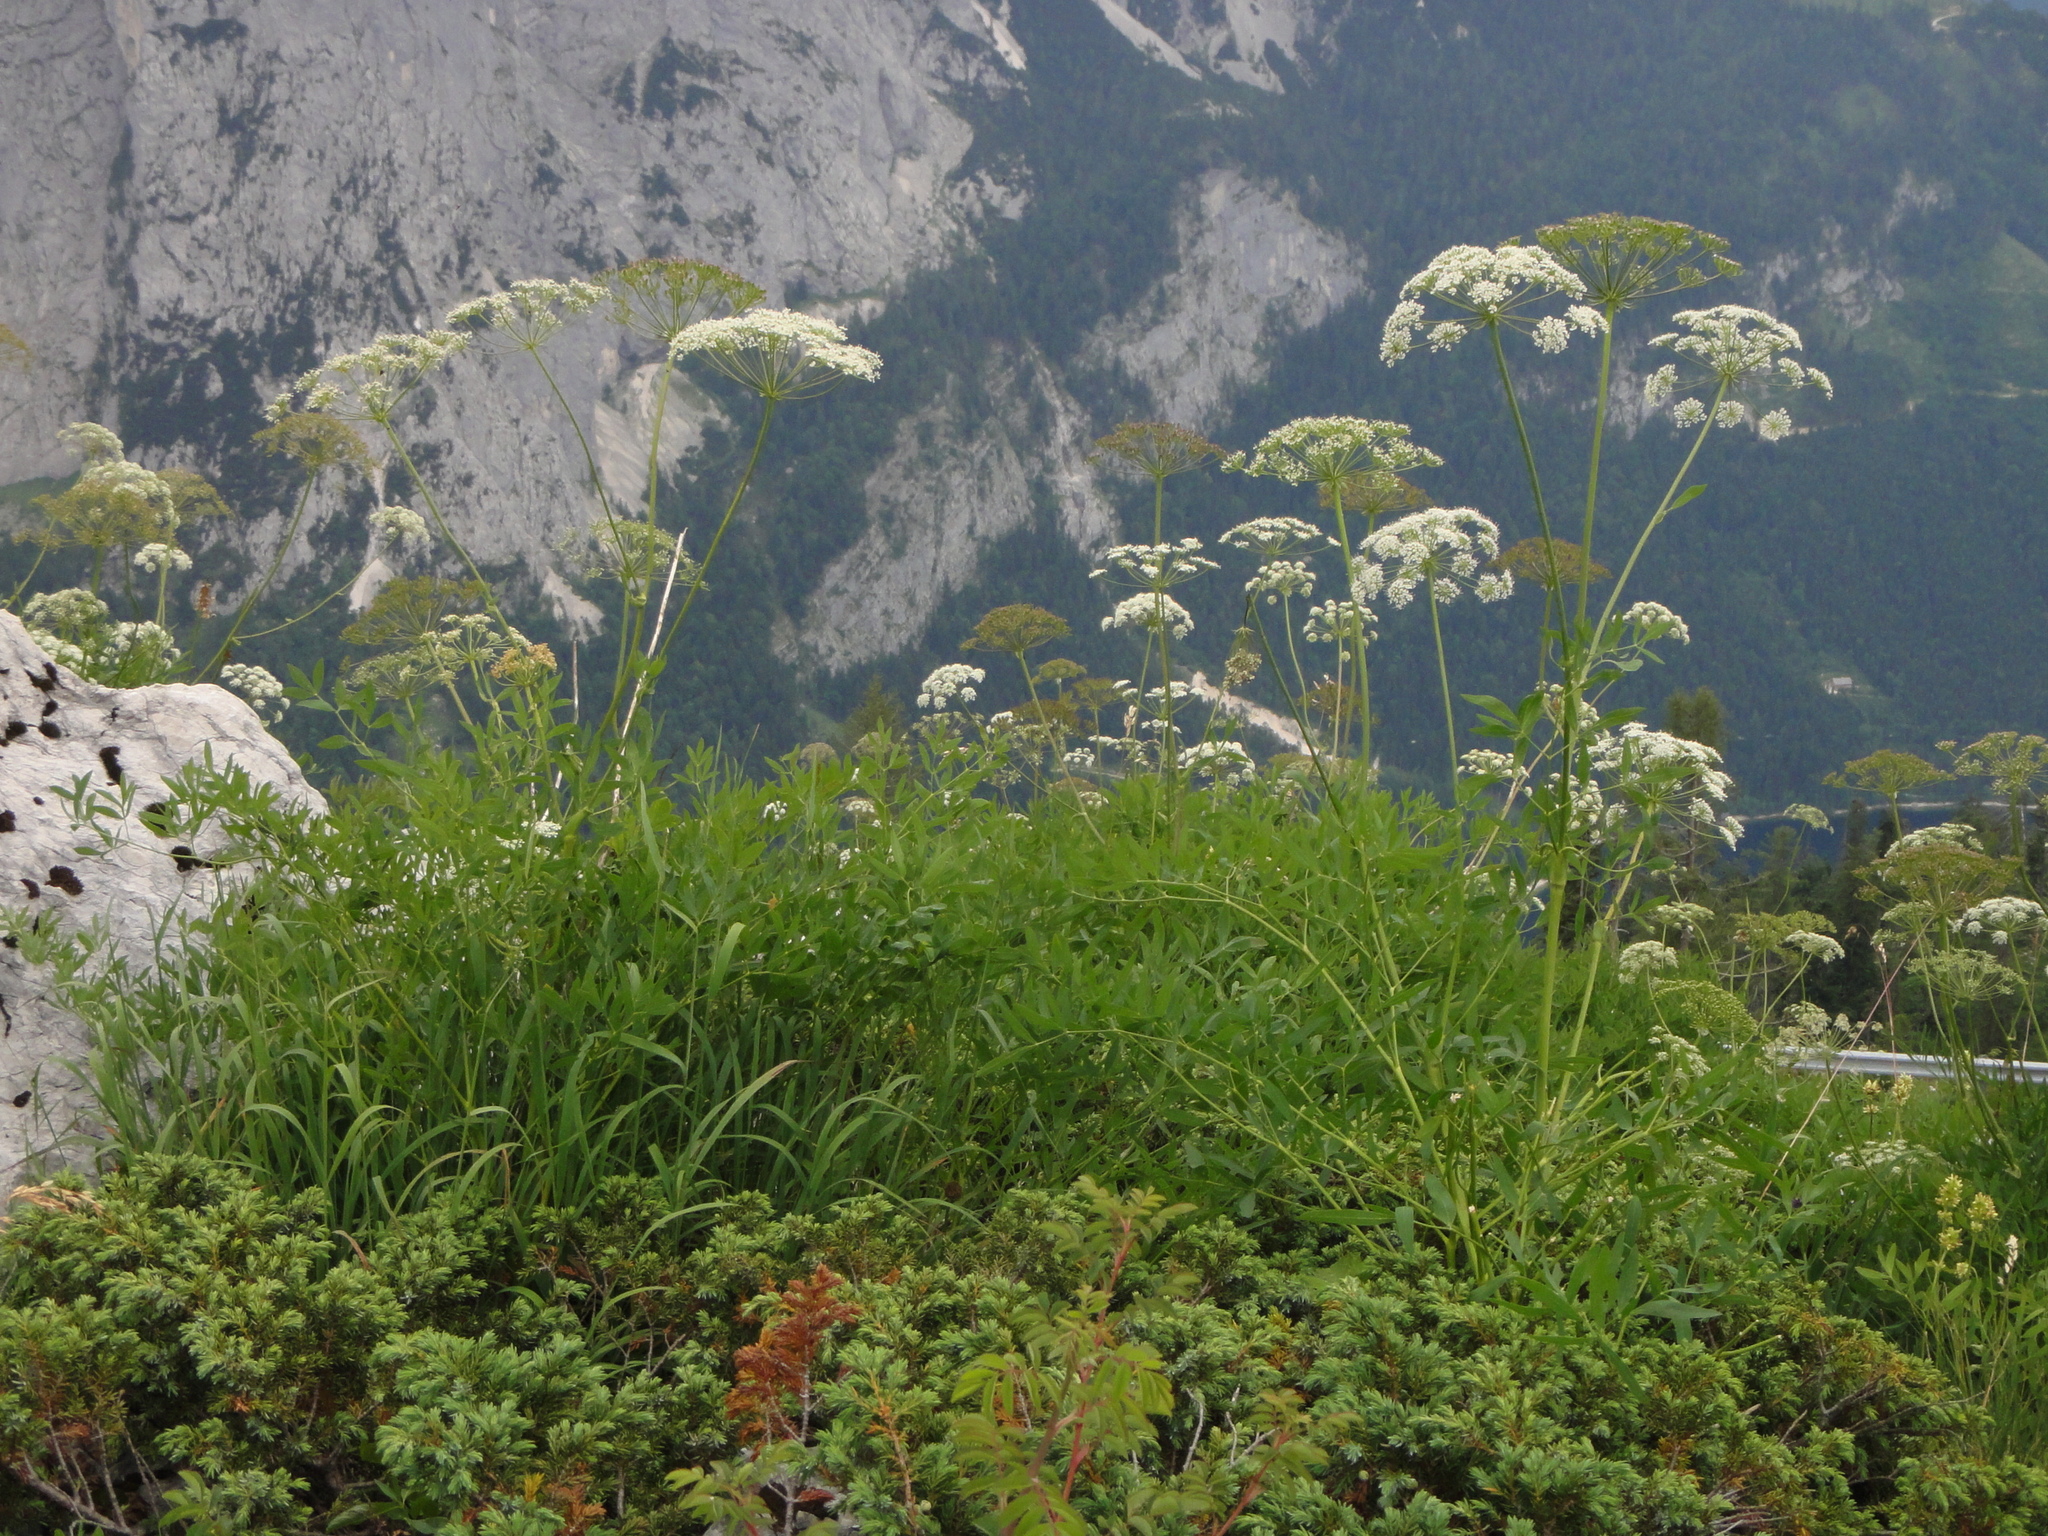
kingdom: Plantae
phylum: Tracheophyta
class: Magnoliopsida
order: Apiales
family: Apiaceae
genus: Siler
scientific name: Siler montanum
